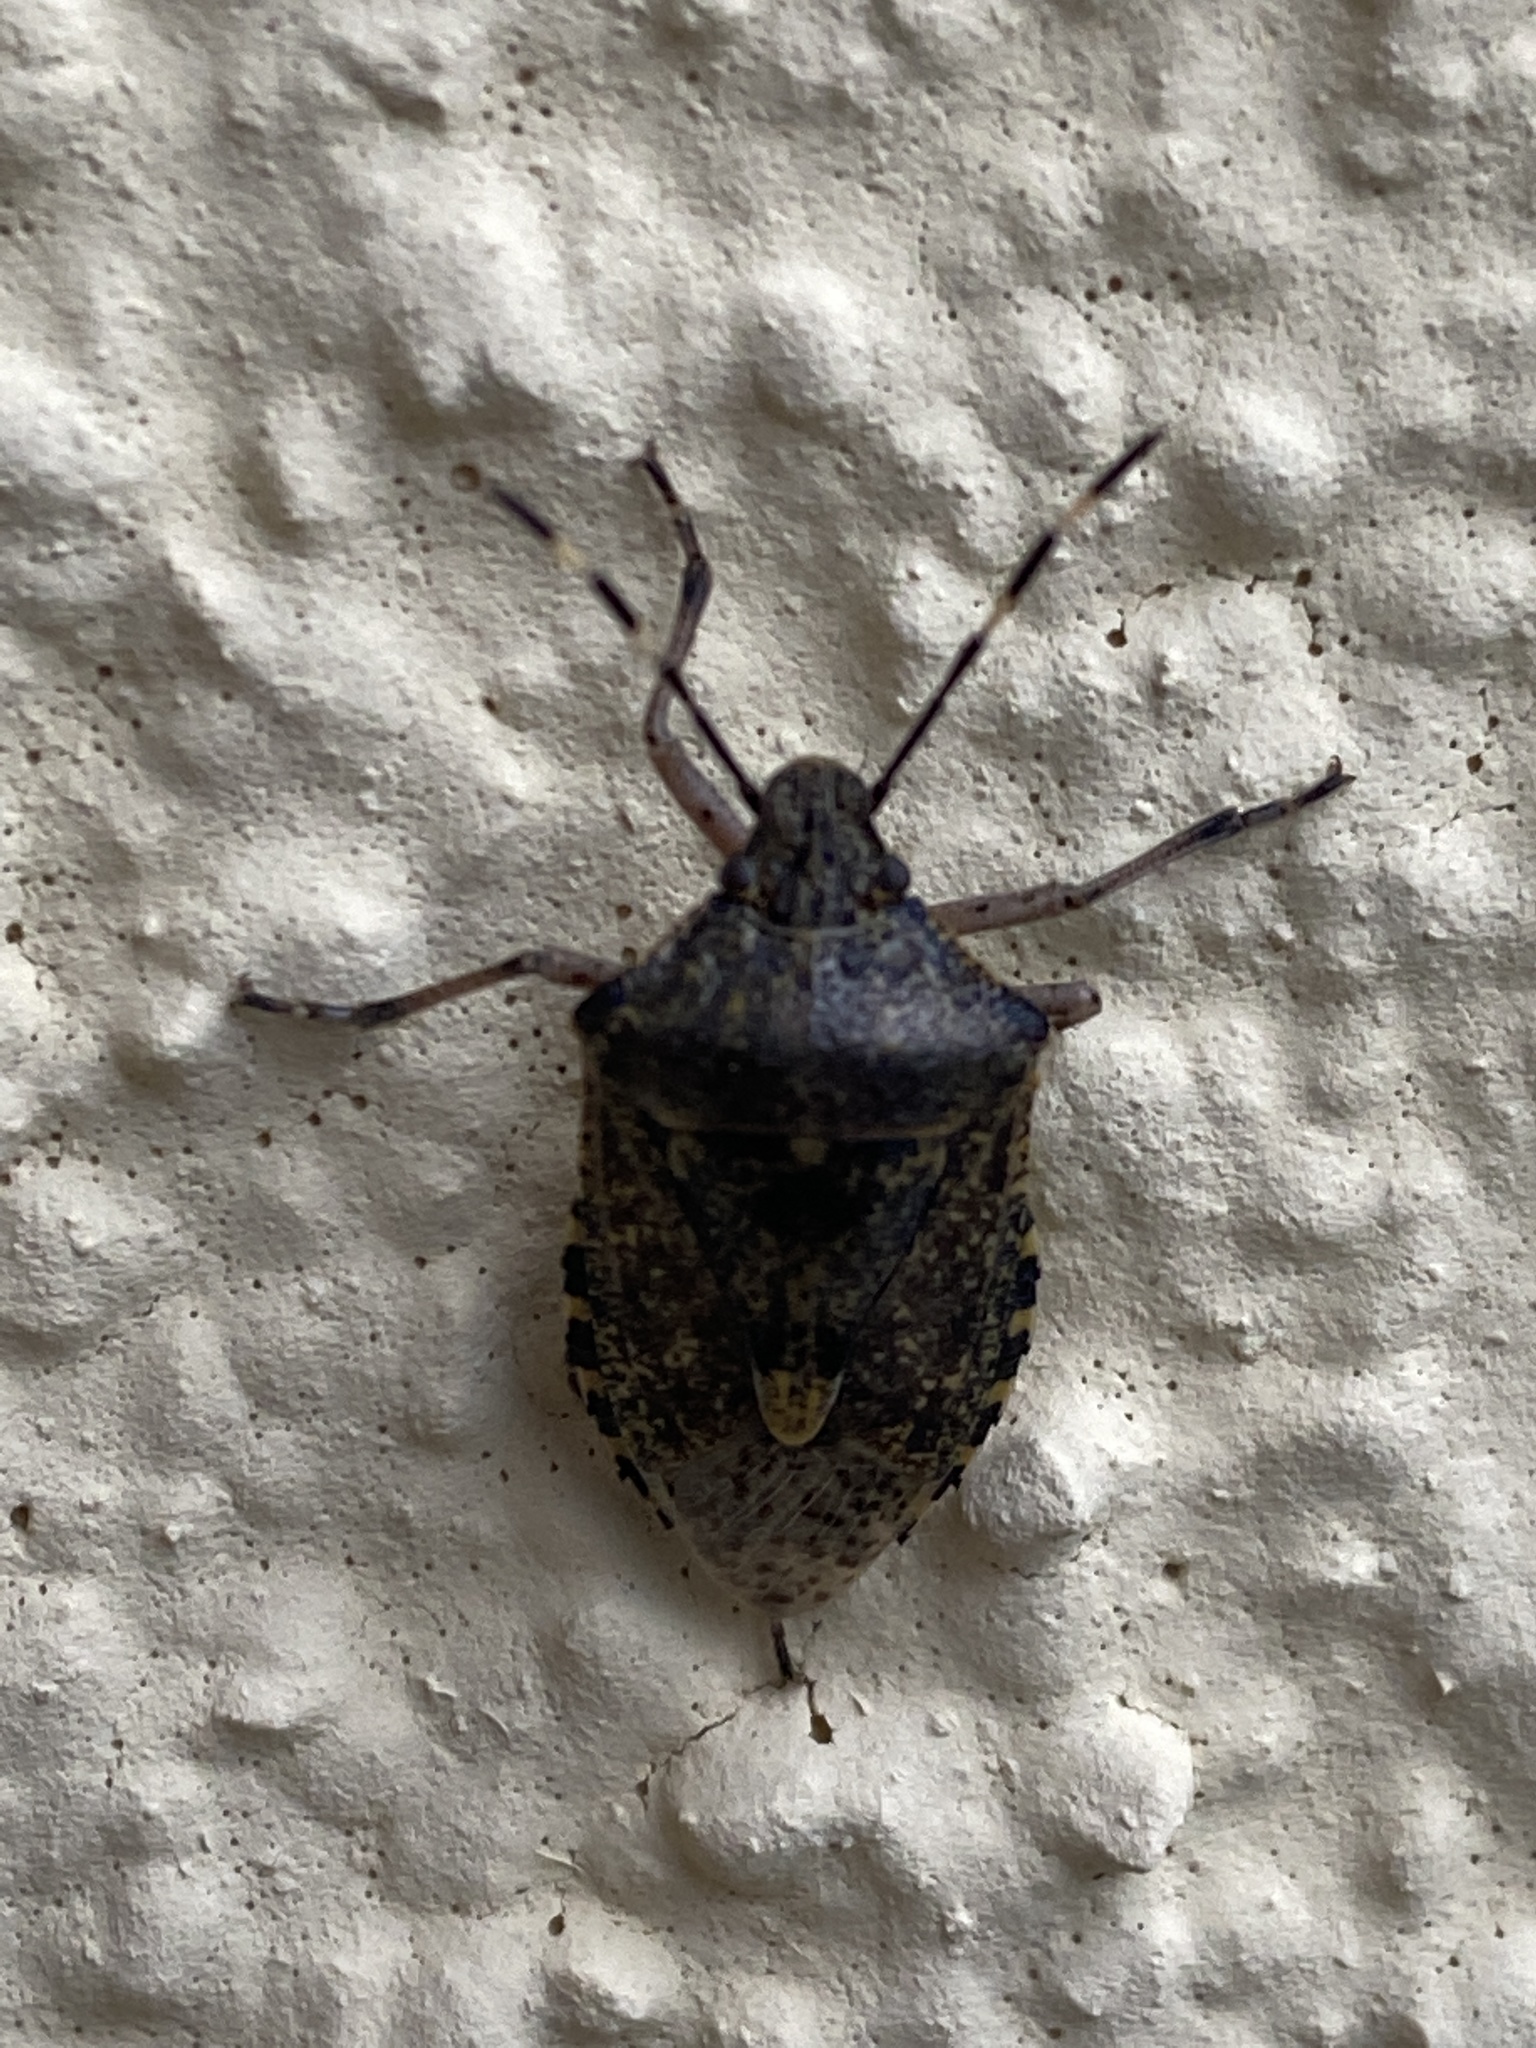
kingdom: Animalia
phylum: Arthropoda
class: Insecta
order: Hemiptera
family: Pentatomidae
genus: Rhaphigaster
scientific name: Rhaphigaster nebulosa
